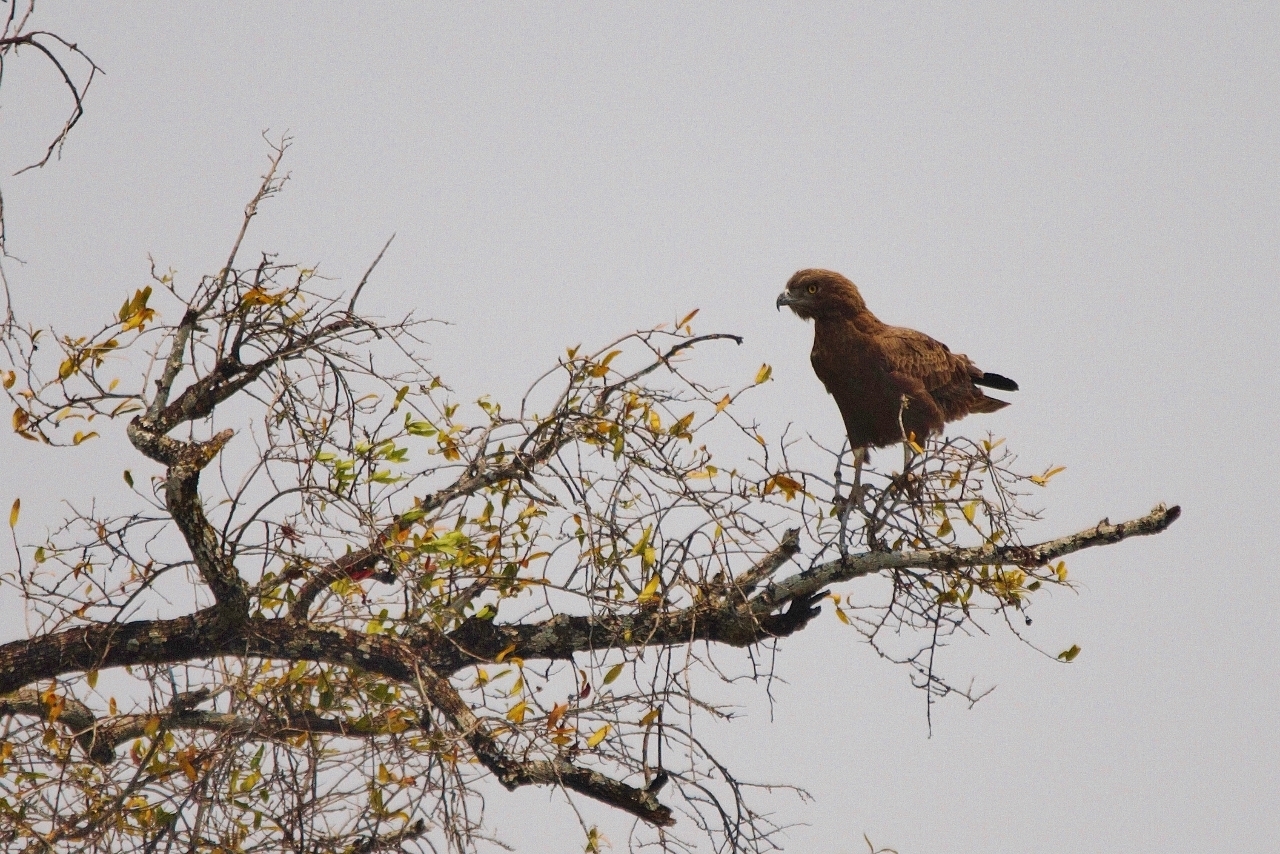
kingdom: Animalia
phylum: Chordata
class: Aves
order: Accipitriformes
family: Accipitridae
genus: Circaetus
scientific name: Circaetus cinereus
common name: Brown snake eagle
